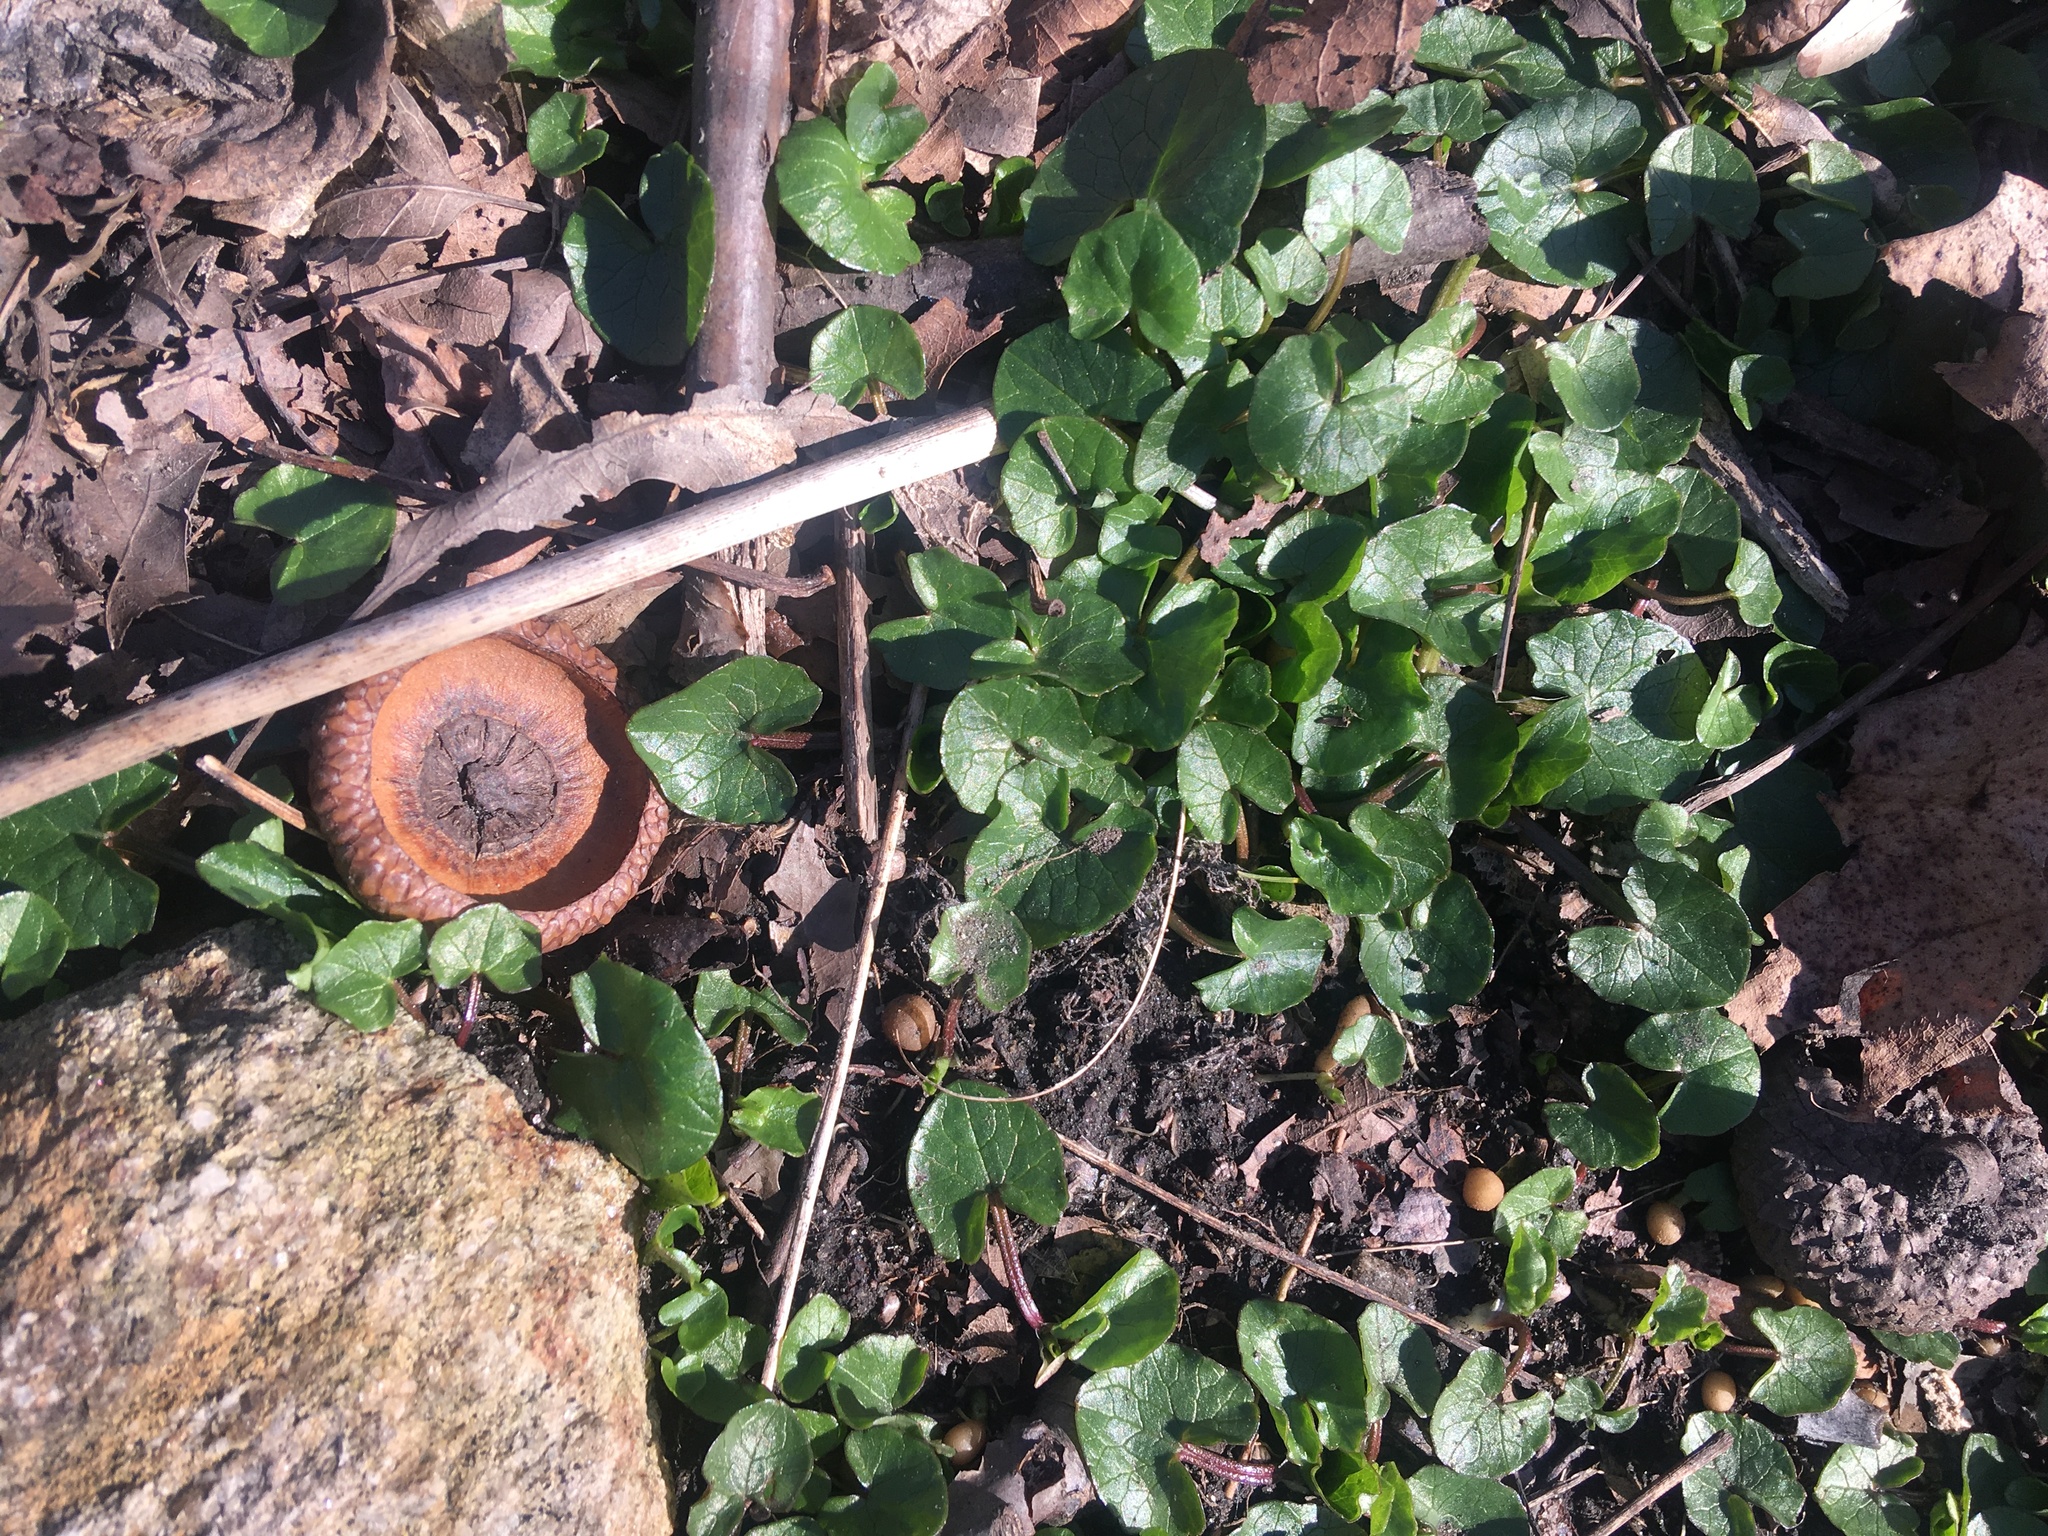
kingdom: Plantae
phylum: Tracheophyta
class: Magnoliopsida
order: Ranunculales
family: Ranunculaceae
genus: Ficaria
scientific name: Ficaria verna
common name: Lesser celandine
